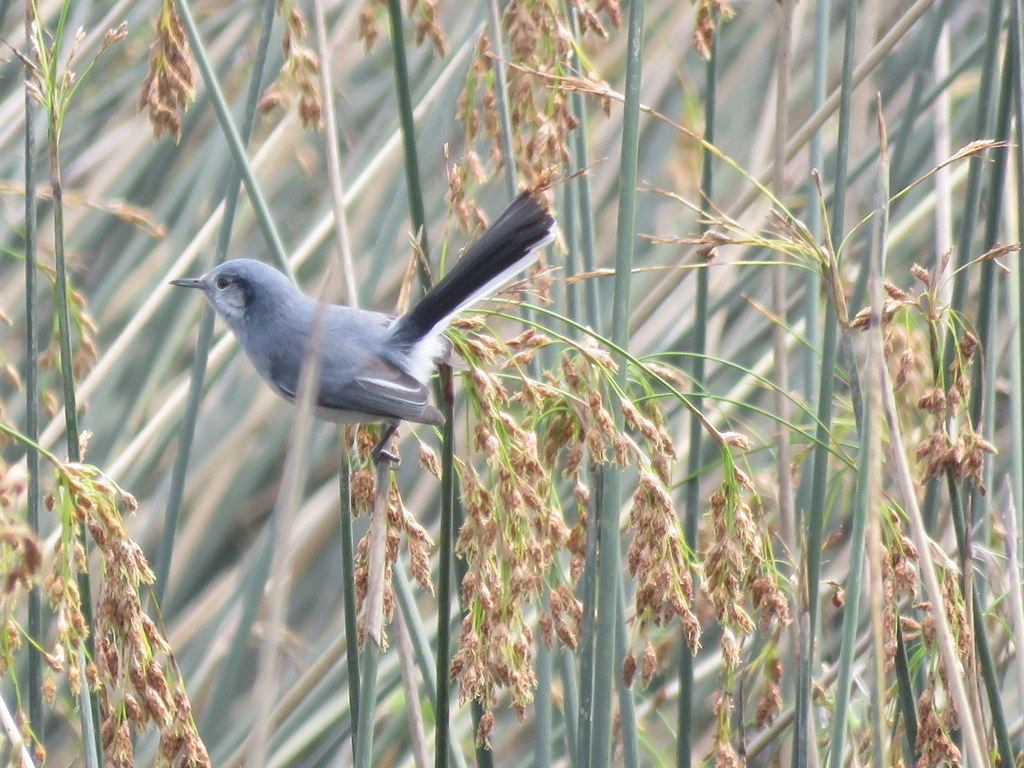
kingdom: Animalia
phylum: Chordata
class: Aves
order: Passeriformes
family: Polioptilidae
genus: Polioptila
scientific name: Polioptila dumicola
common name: Masked gnatcatcher
